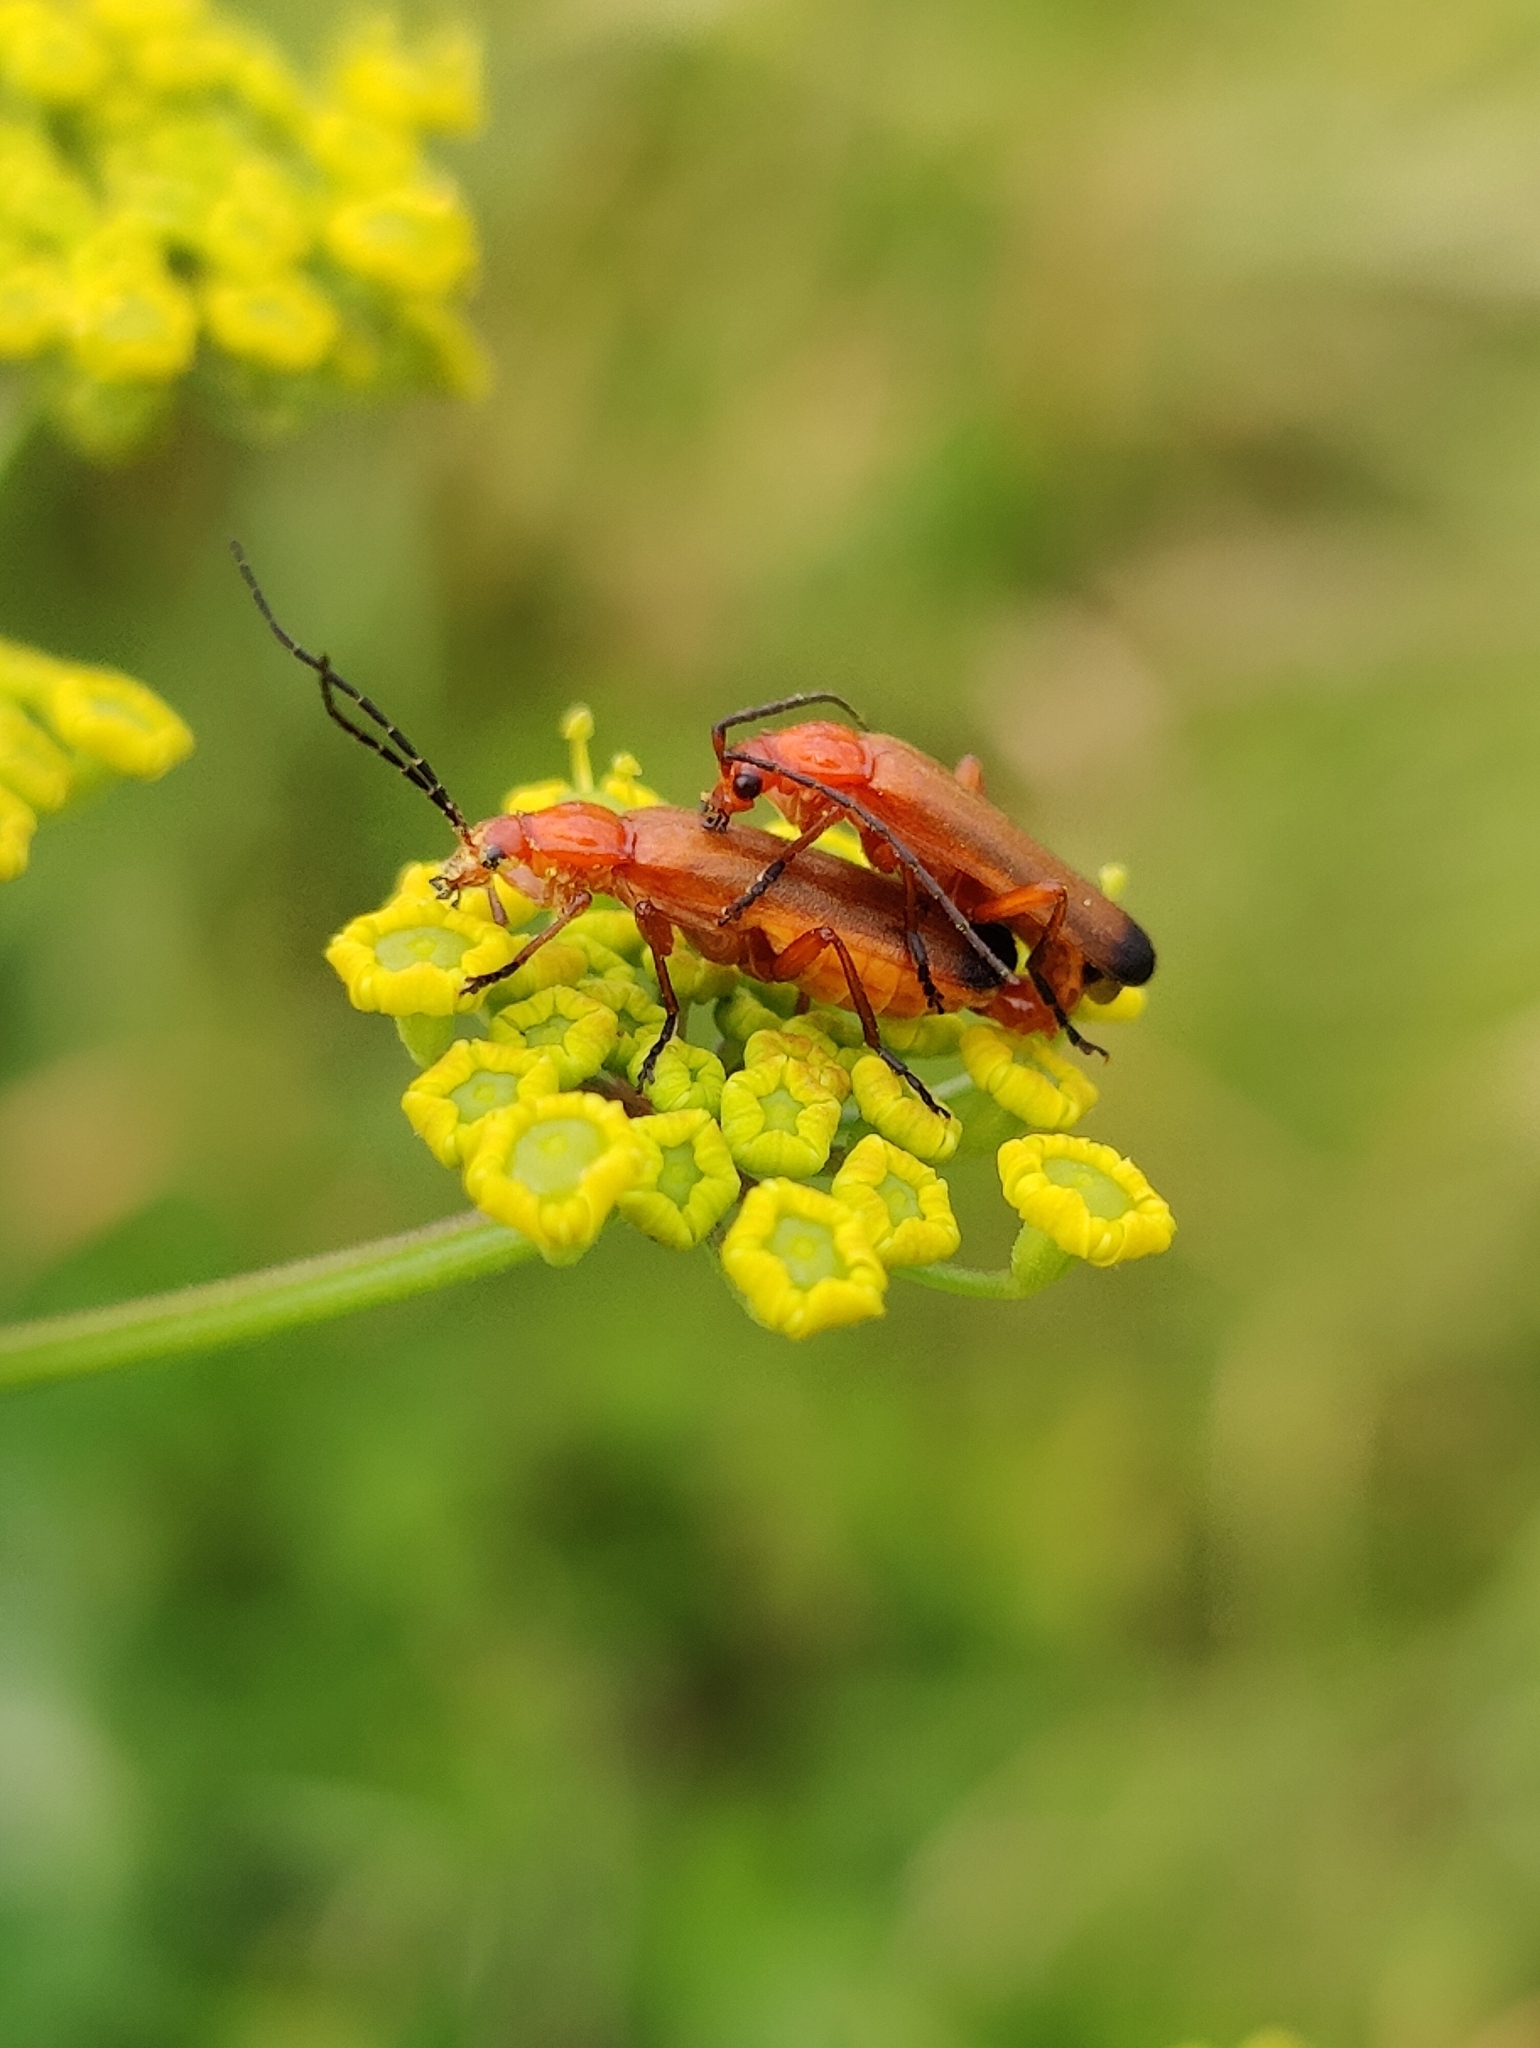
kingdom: Animalia
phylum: Arthropoda
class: Insecta
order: Coleoptera
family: Cantharidae
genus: Rhagonycha
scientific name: Rhagonycha fulva
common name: Common red soldier beetle
